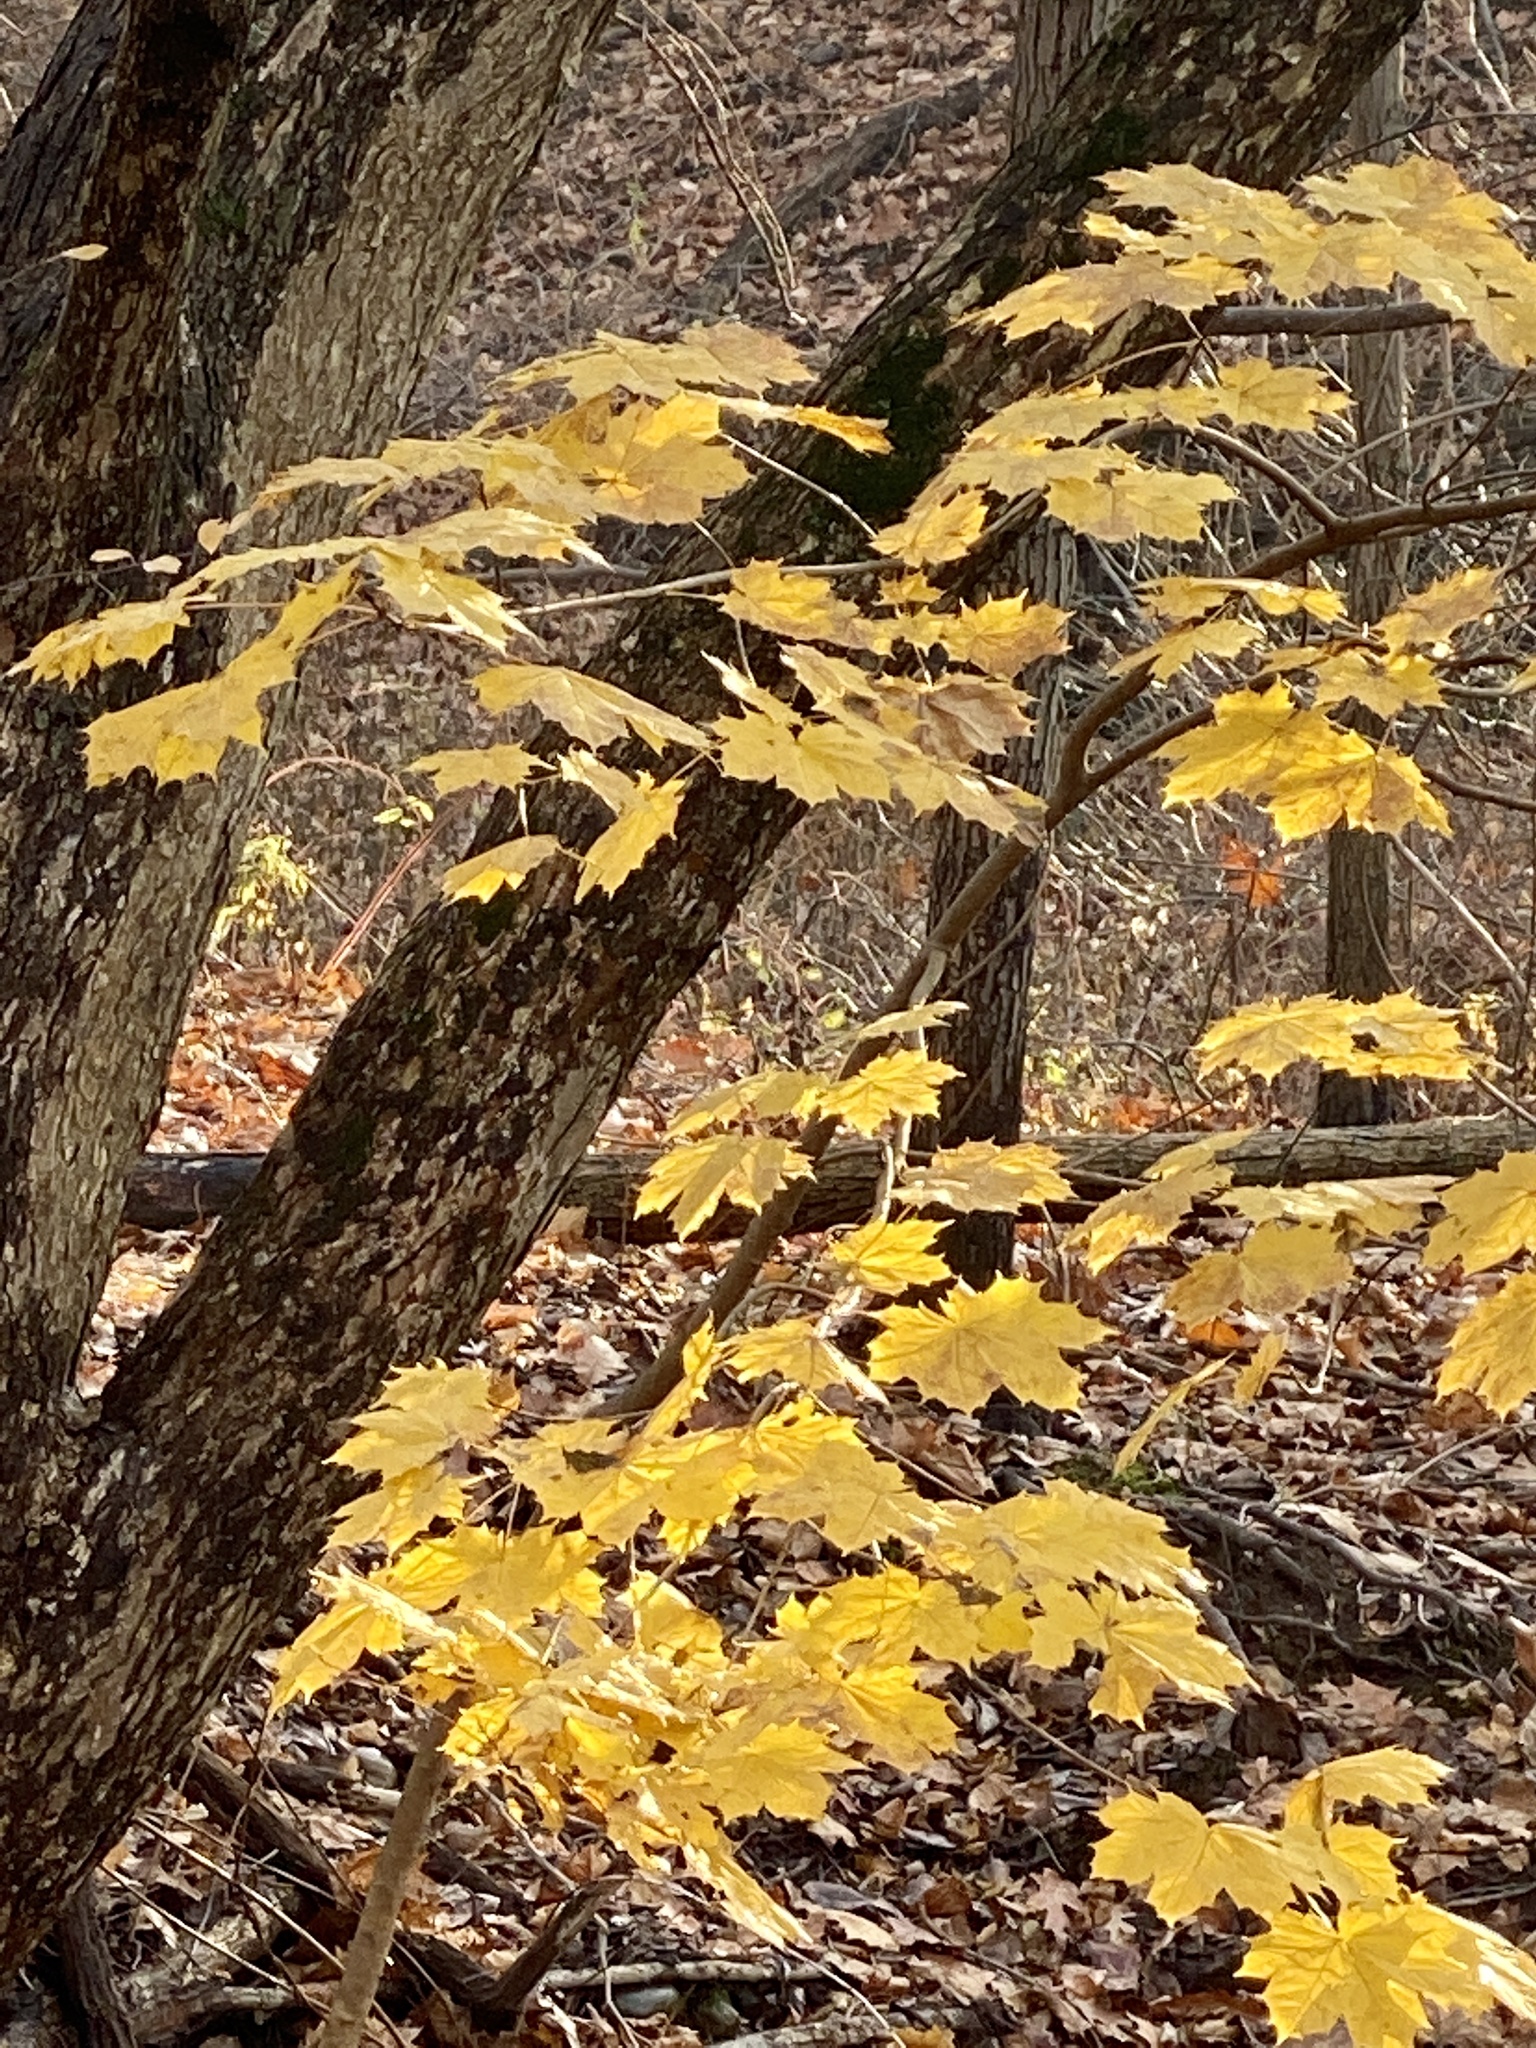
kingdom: Plantae
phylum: Tracheophyta
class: Magnoliopsida
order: Sapindales
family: Sapindaceae
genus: Acer
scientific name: Acer platanoides
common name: Norway maple
